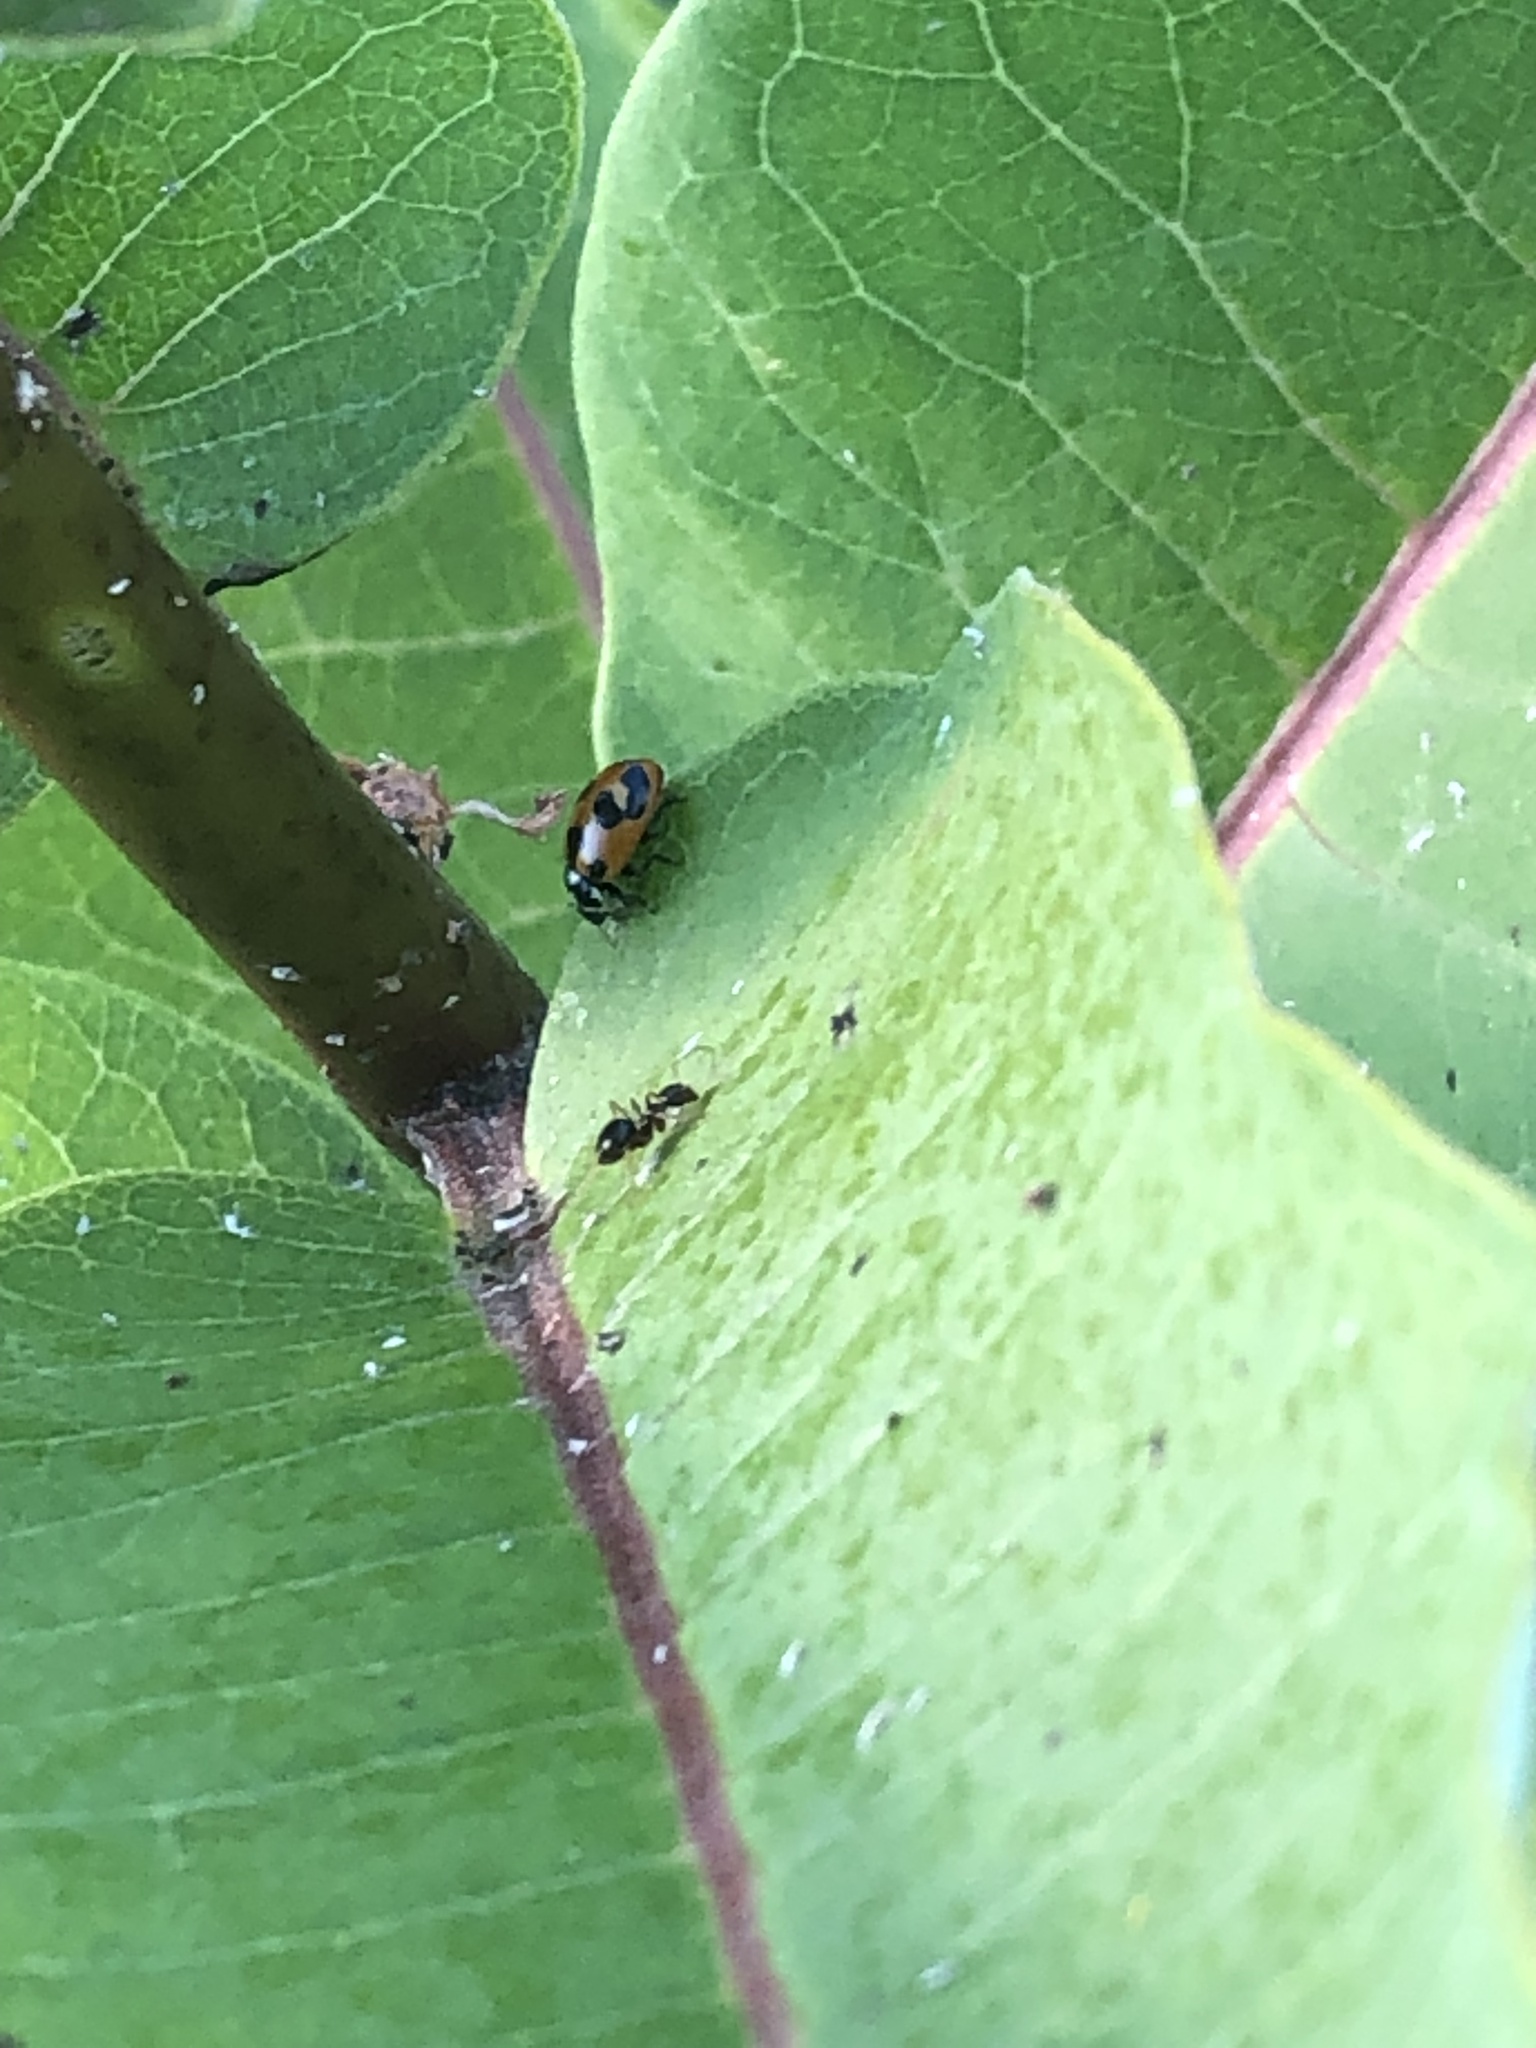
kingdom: Animalia
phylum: Arthropoda
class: Insecta
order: Coleoptera
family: Coccinellidae
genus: Hippodamia
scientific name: Hippodamia parenthesis
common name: Parenthesis lady beetle
